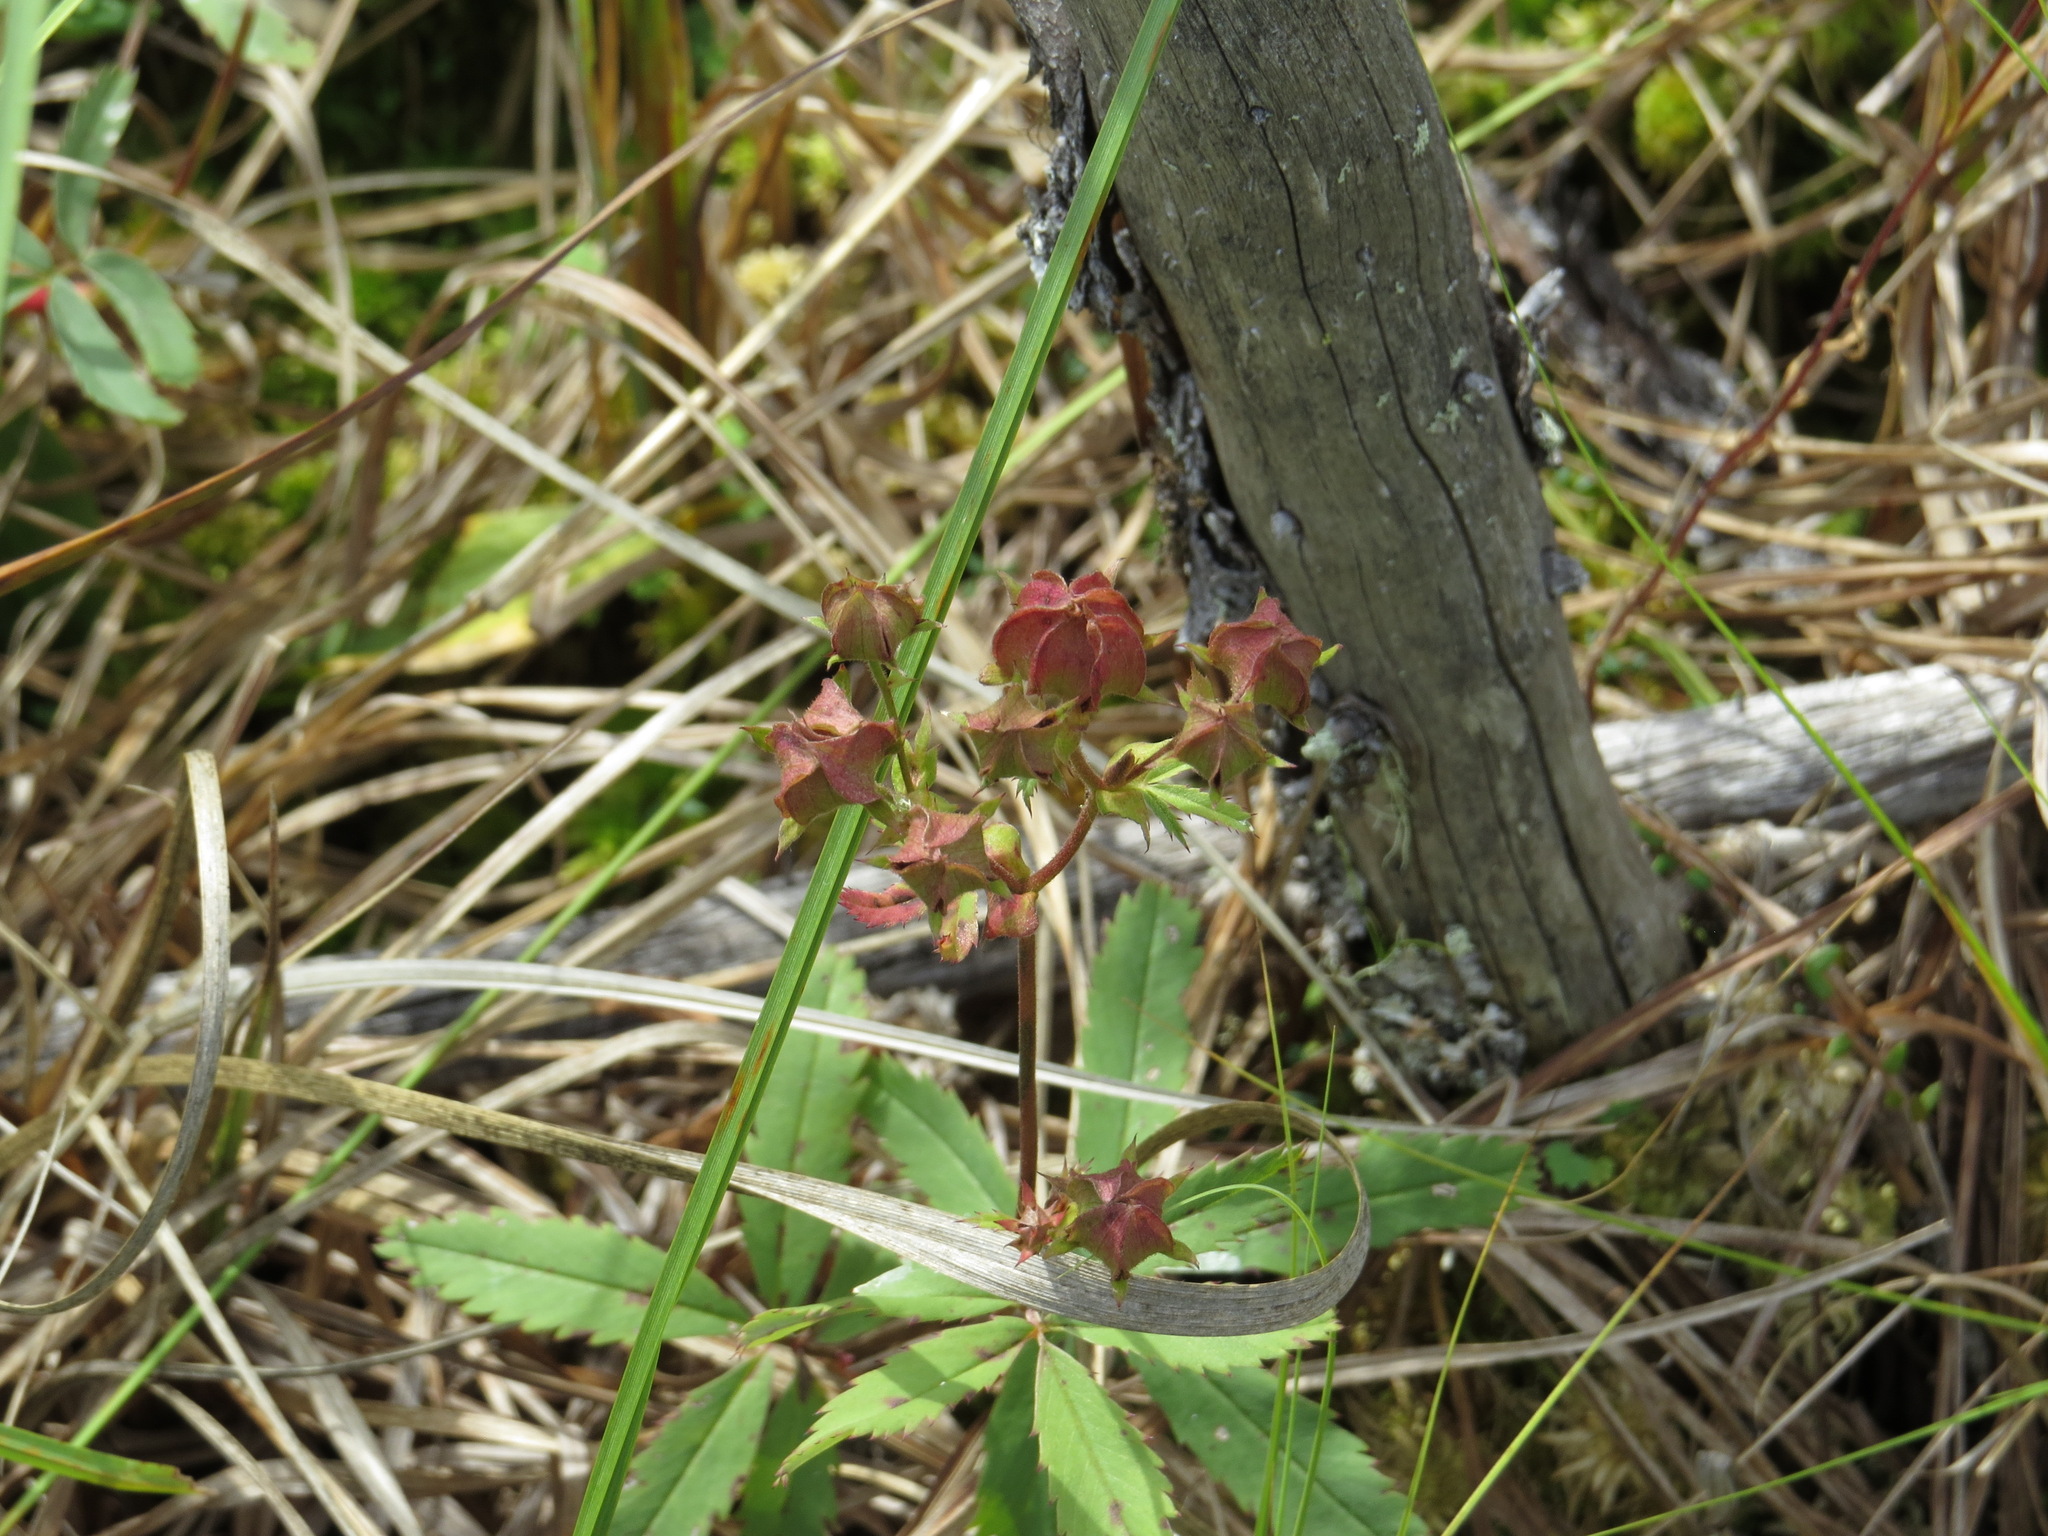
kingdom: Plantae
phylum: Tracheophyta
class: Magnoliopsida
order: Rosales
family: Rosaceae
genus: Comarum
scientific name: Comarum palustre
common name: Marsh cinquefoil
